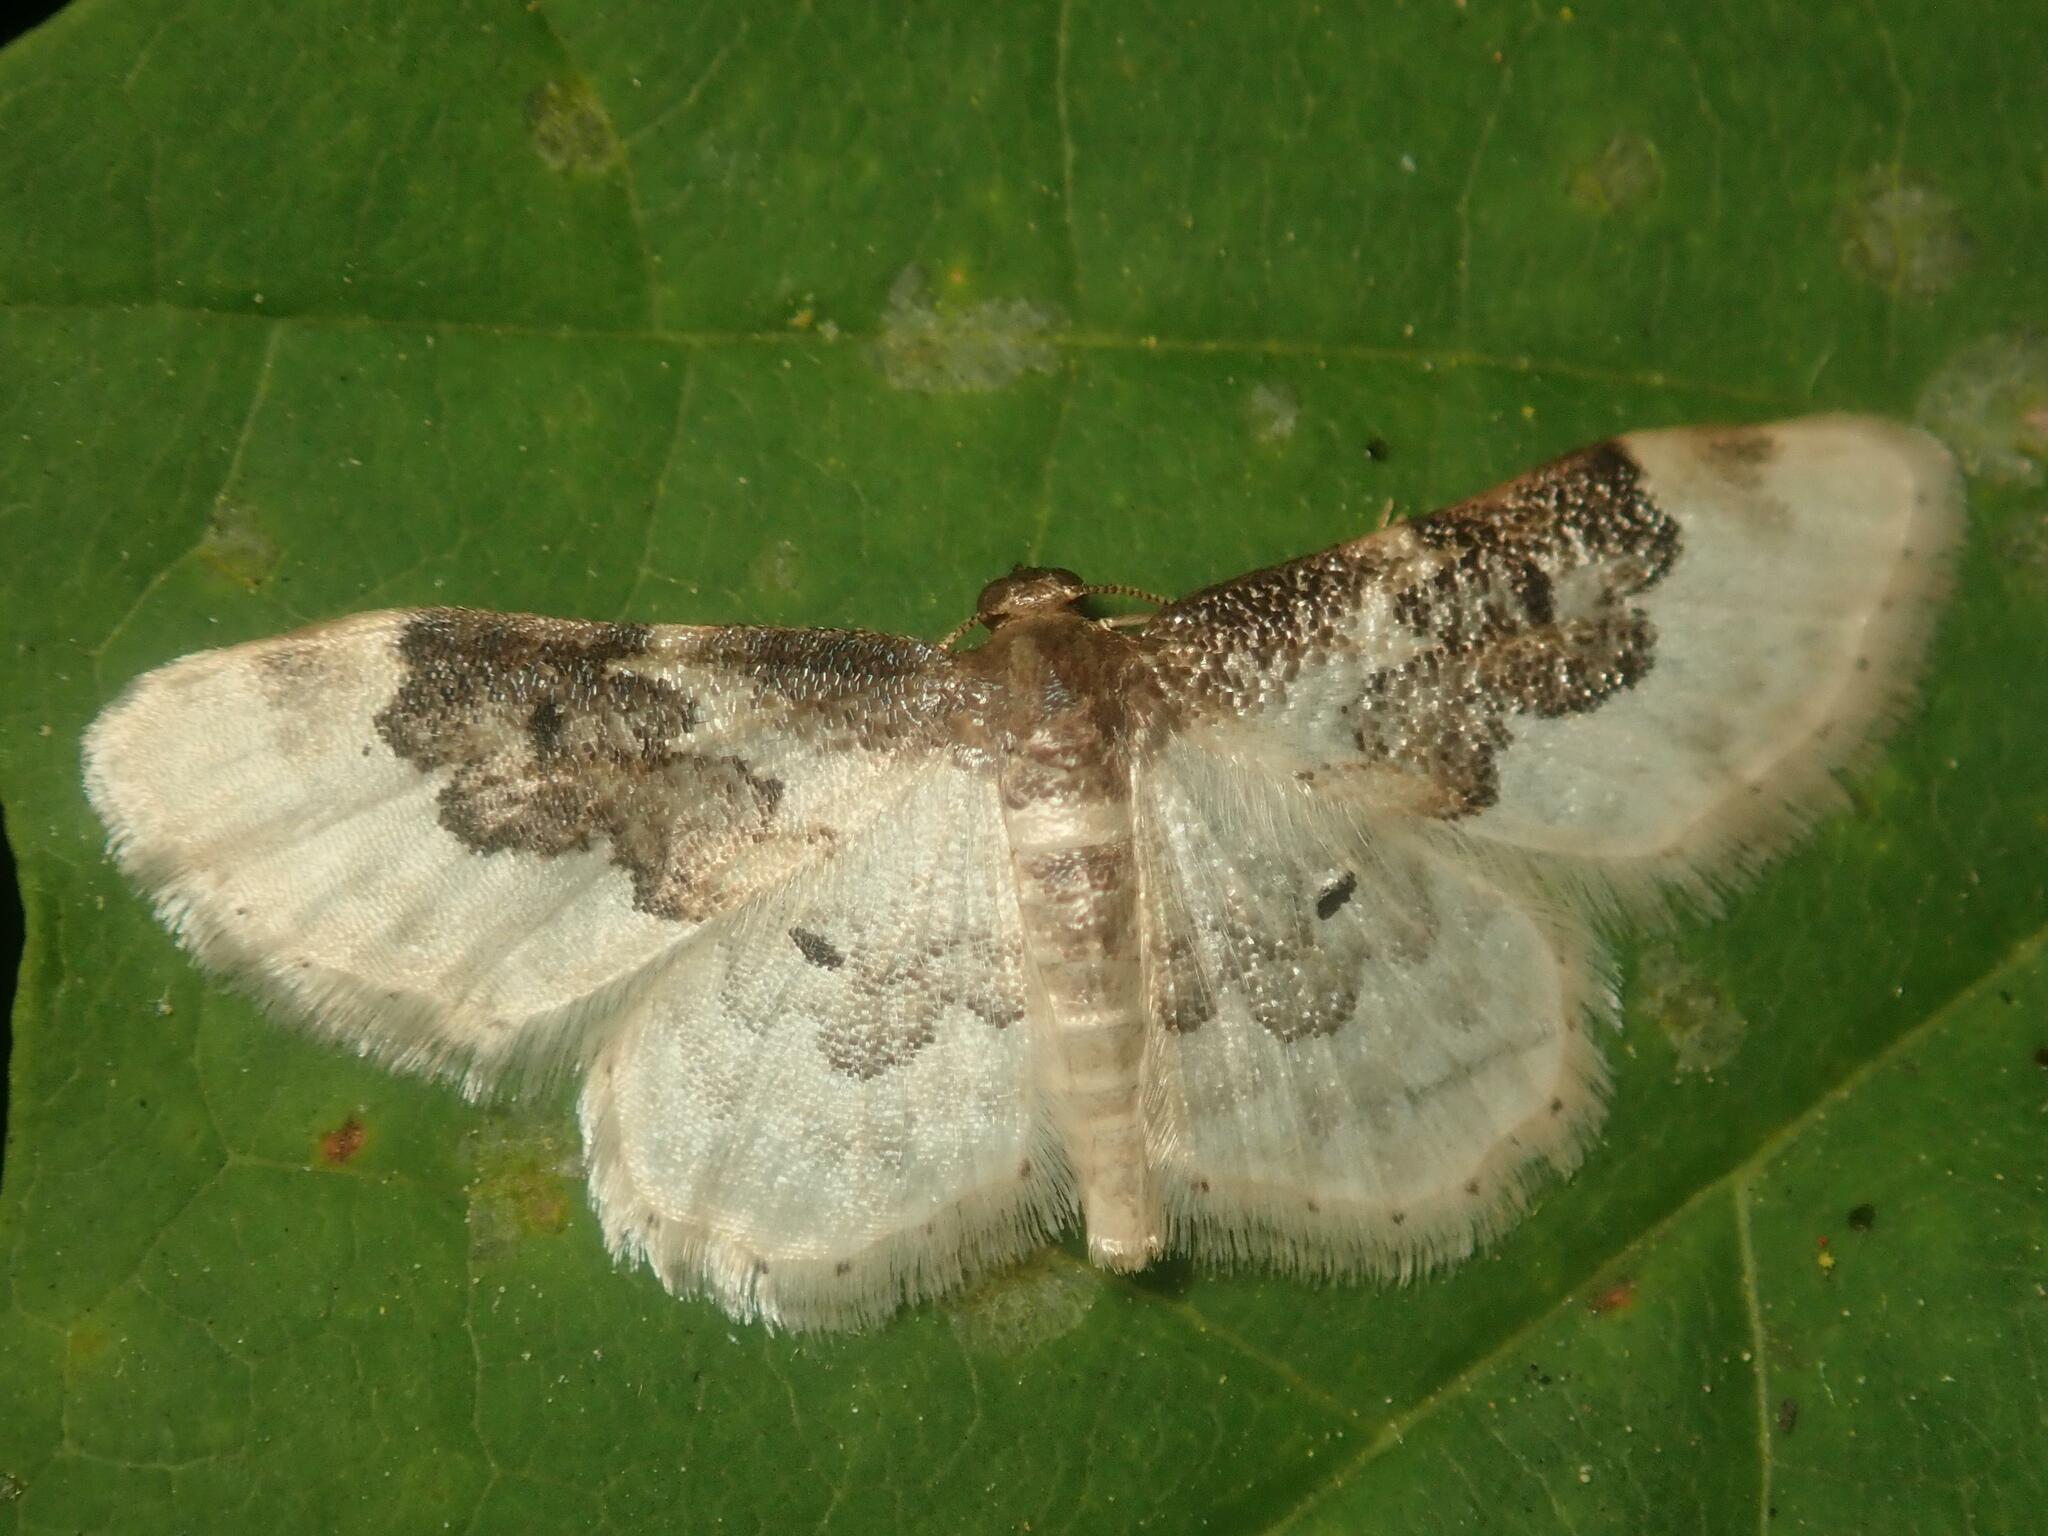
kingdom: Animalia
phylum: Arthropoda
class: Insecta
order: Lepidoptera
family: Geometridae
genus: Idaea
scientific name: Idaea rusticata
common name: Least carpet
